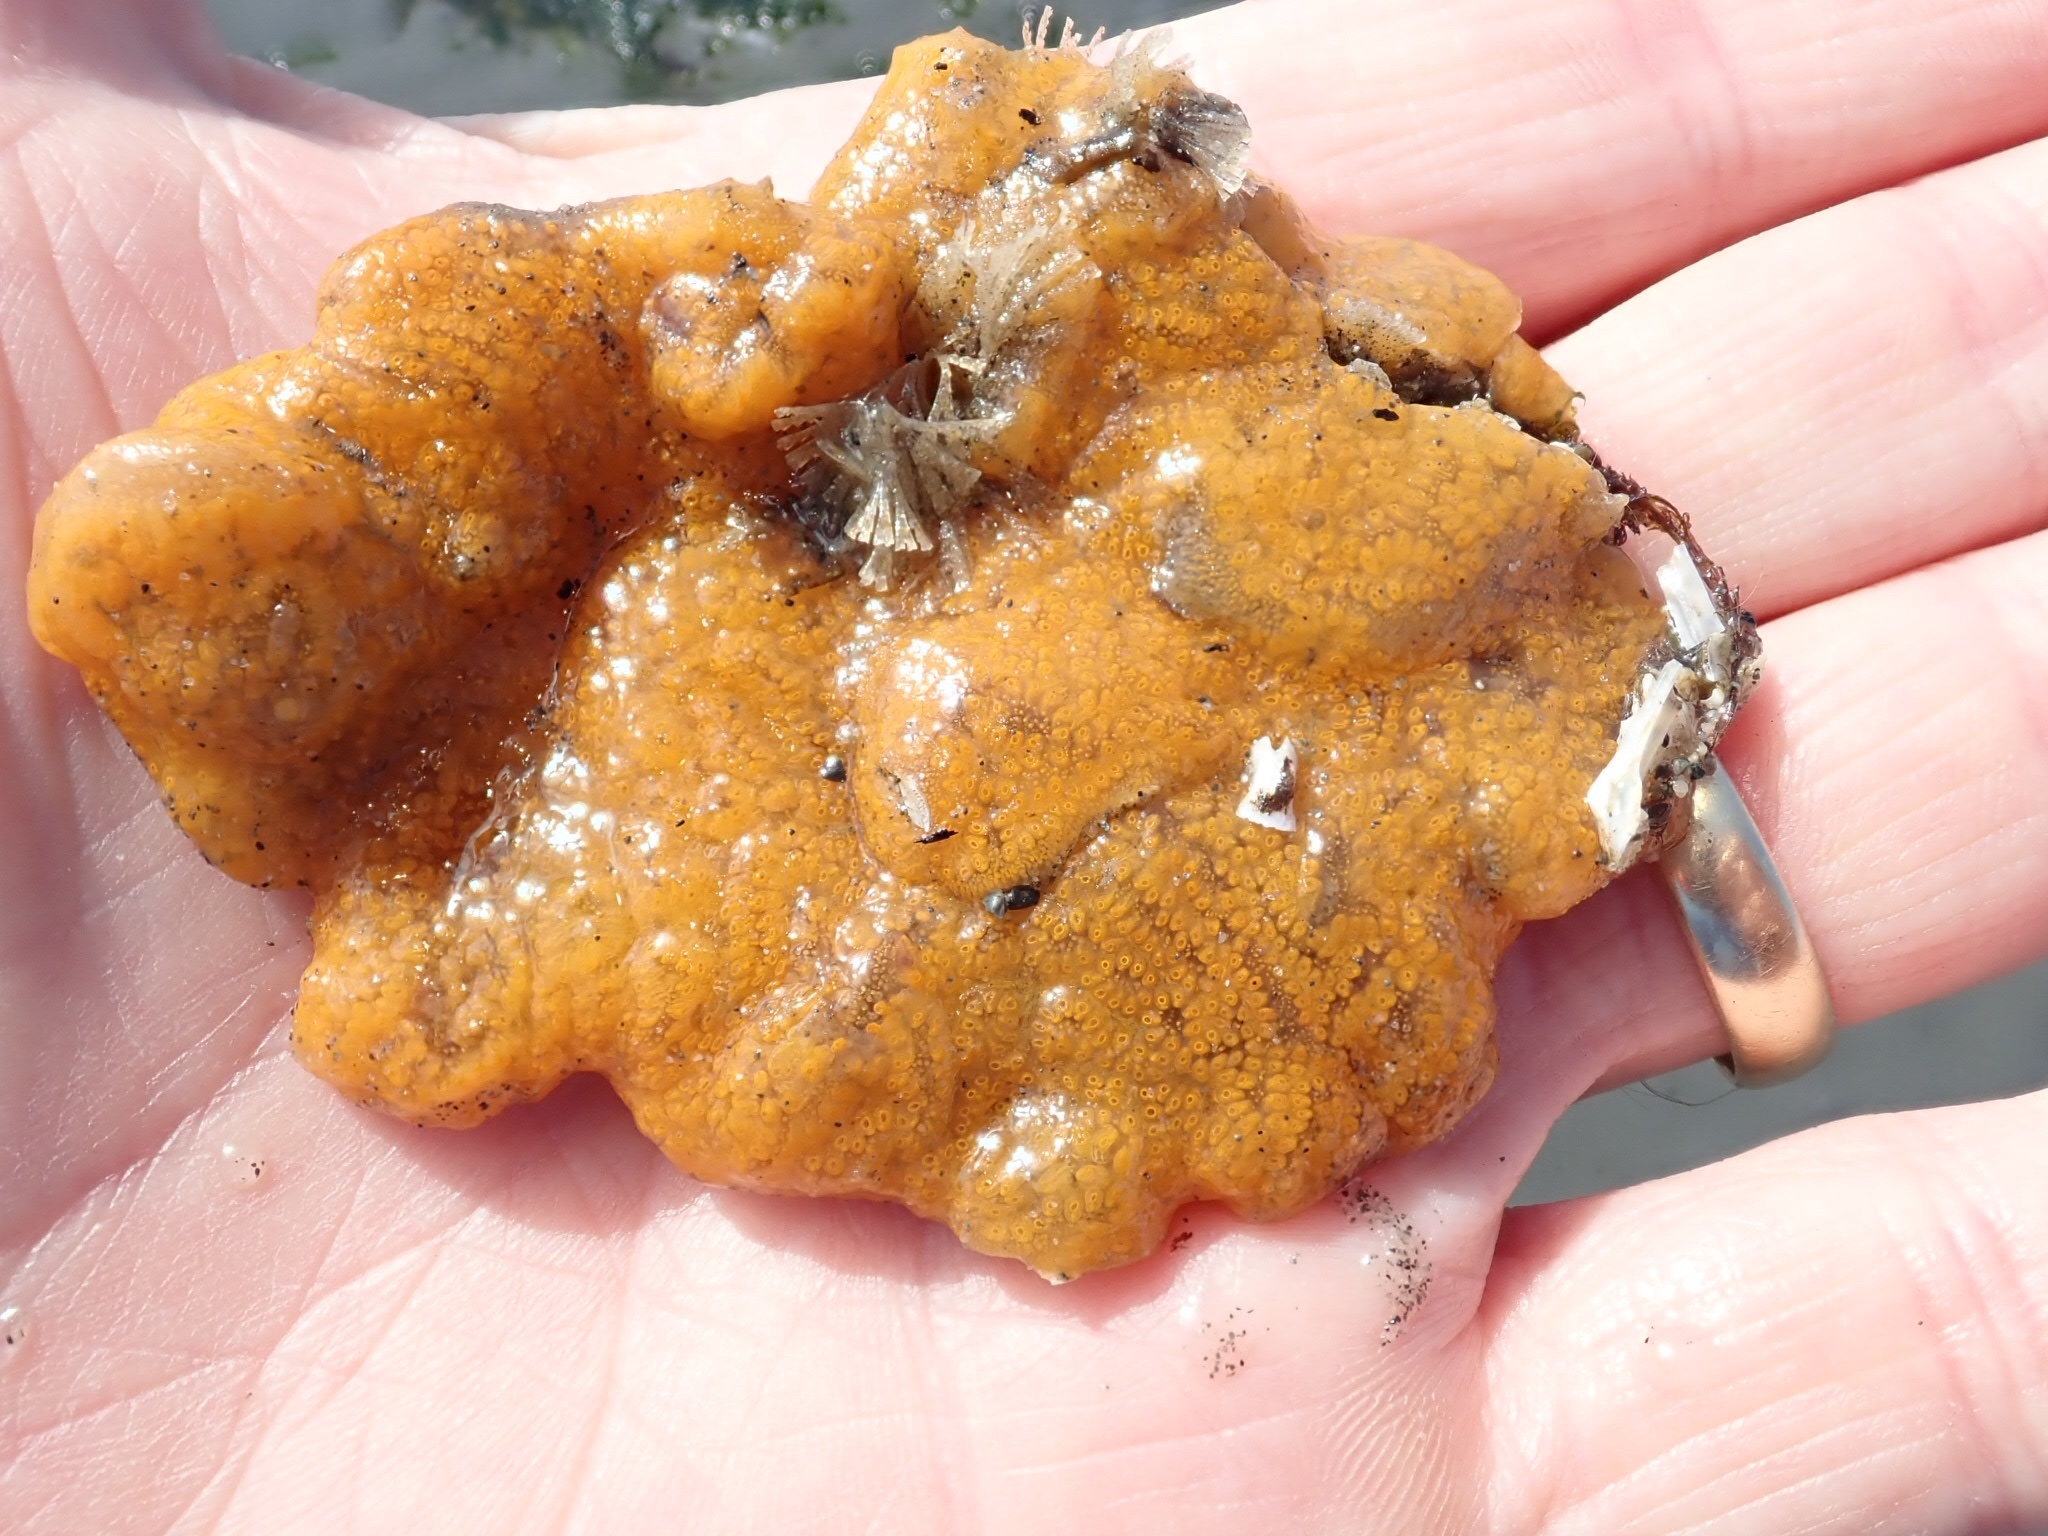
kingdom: Animalia
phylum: Chordata
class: Ascidiacea
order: Stolidobranchia
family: Styelidae
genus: Botrylloides
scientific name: Botrylloides violaceus
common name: Colonial sea squirt
